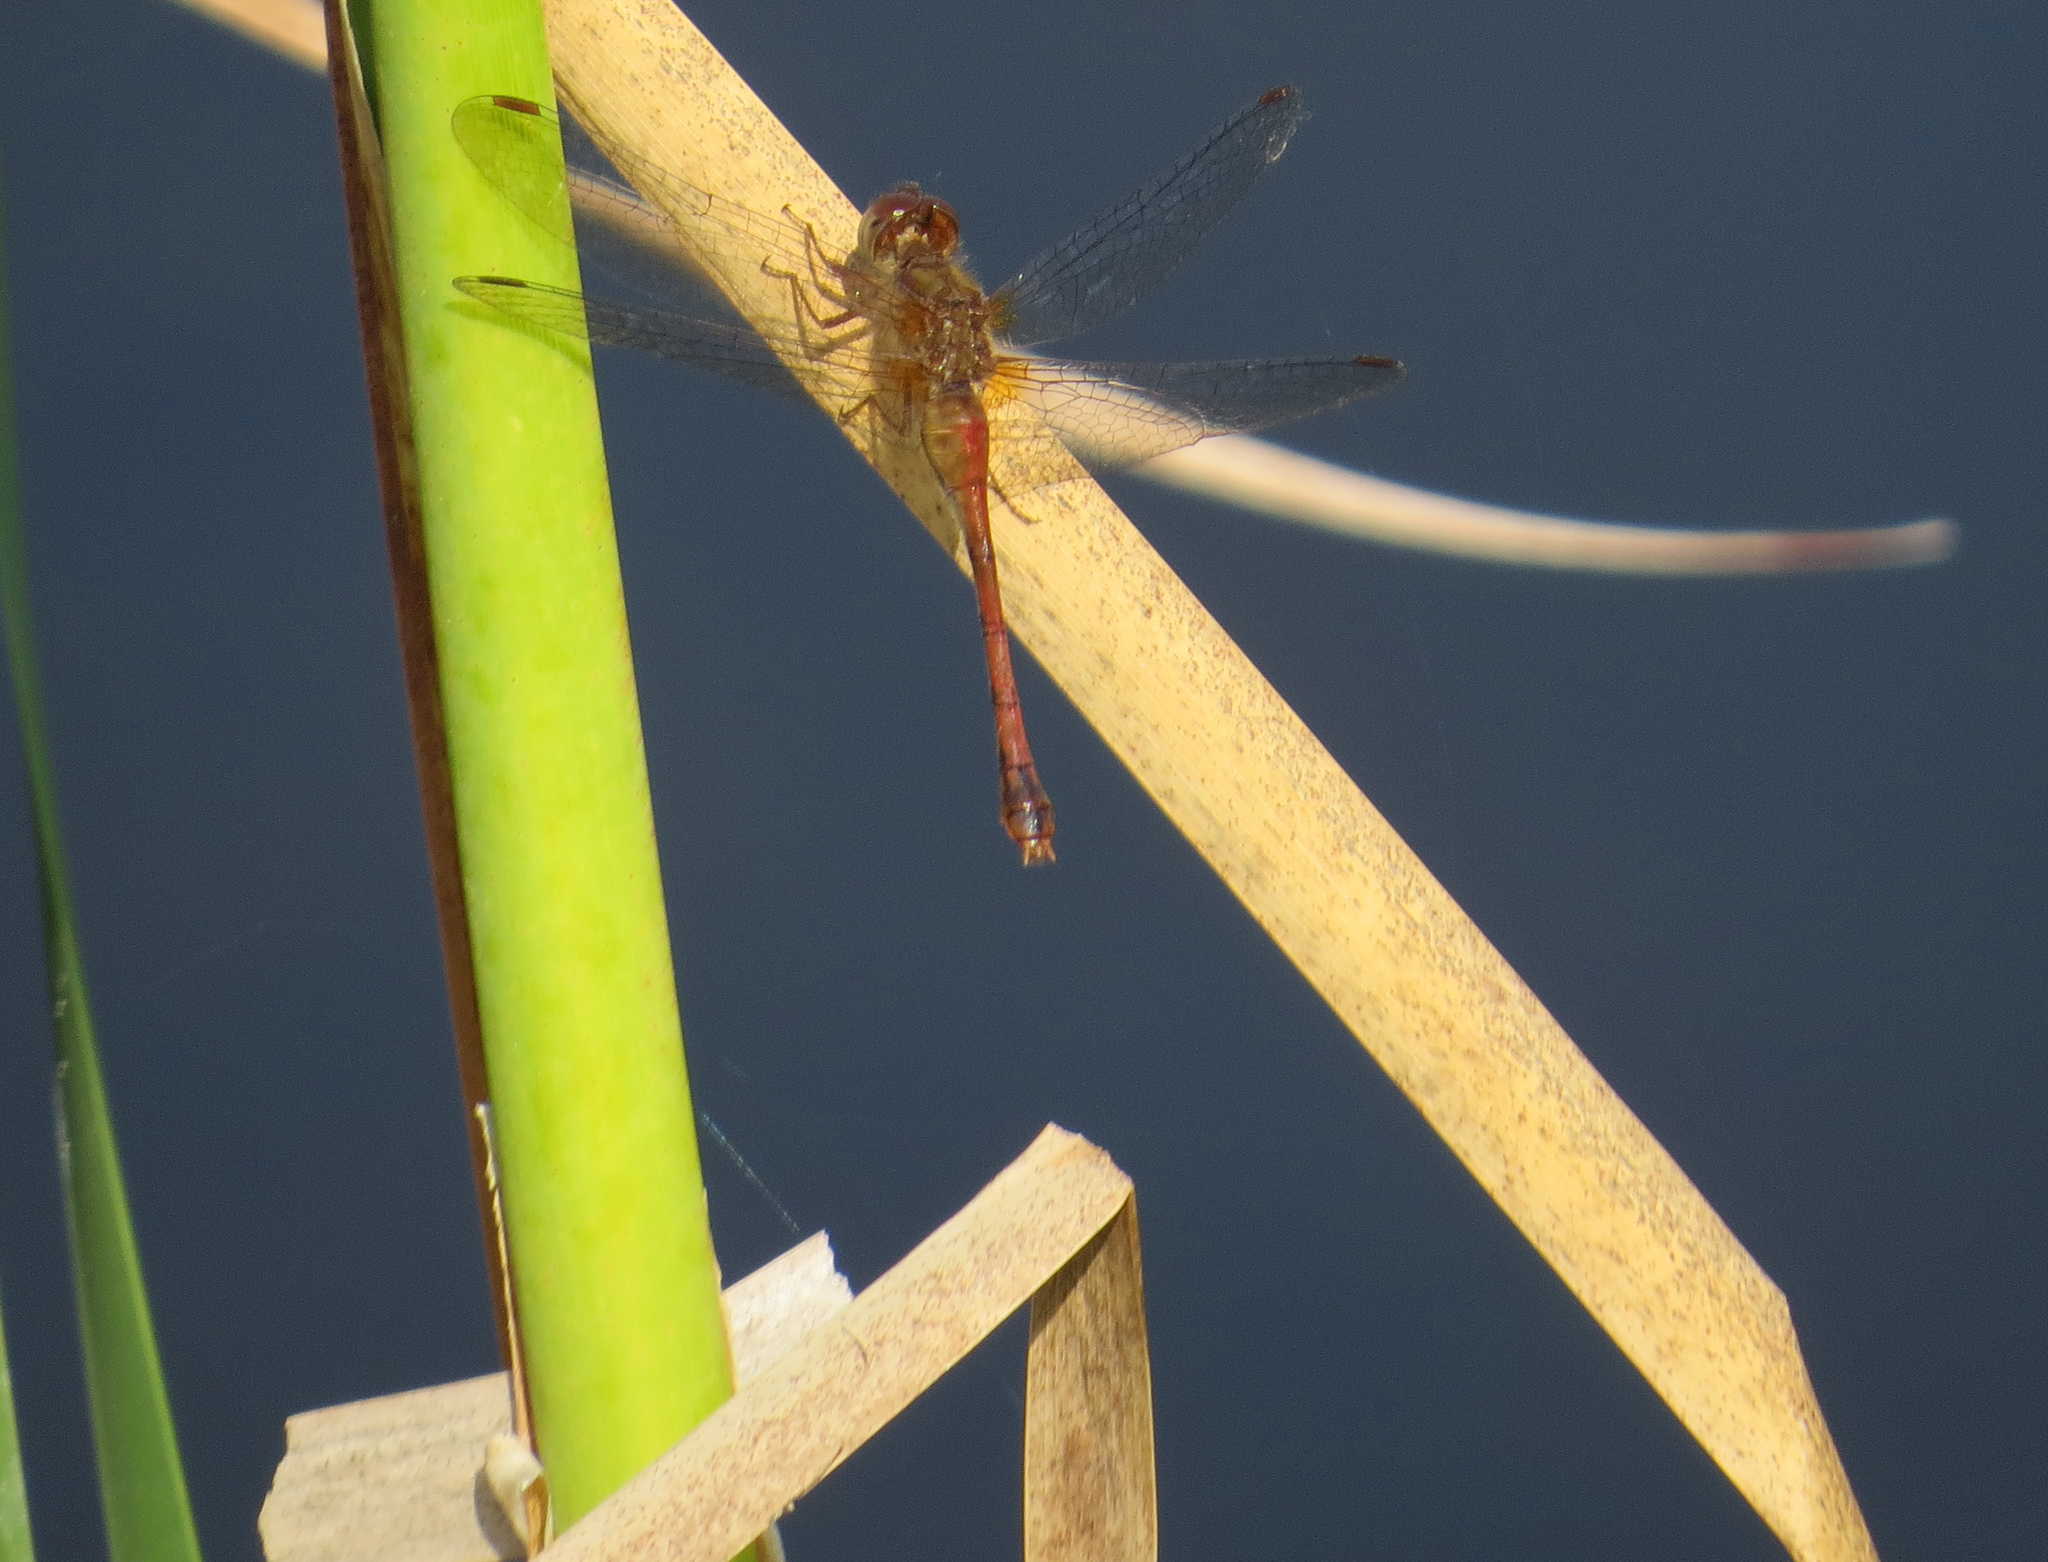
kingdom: Animalia
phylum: Arthropoda
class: Insecta
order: Odonata
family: Libellulidae
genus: Sympetrum
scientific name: Sympetrum vicinum
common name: Autumn meadowhawk
